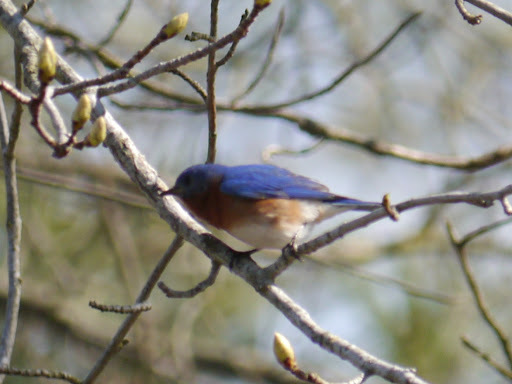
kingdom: Animalia
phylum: Chordata
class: Aves
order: Passeriformes
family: Turdidae
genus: Sialia
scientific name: Sialia sialis
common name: Eastern bluebird
